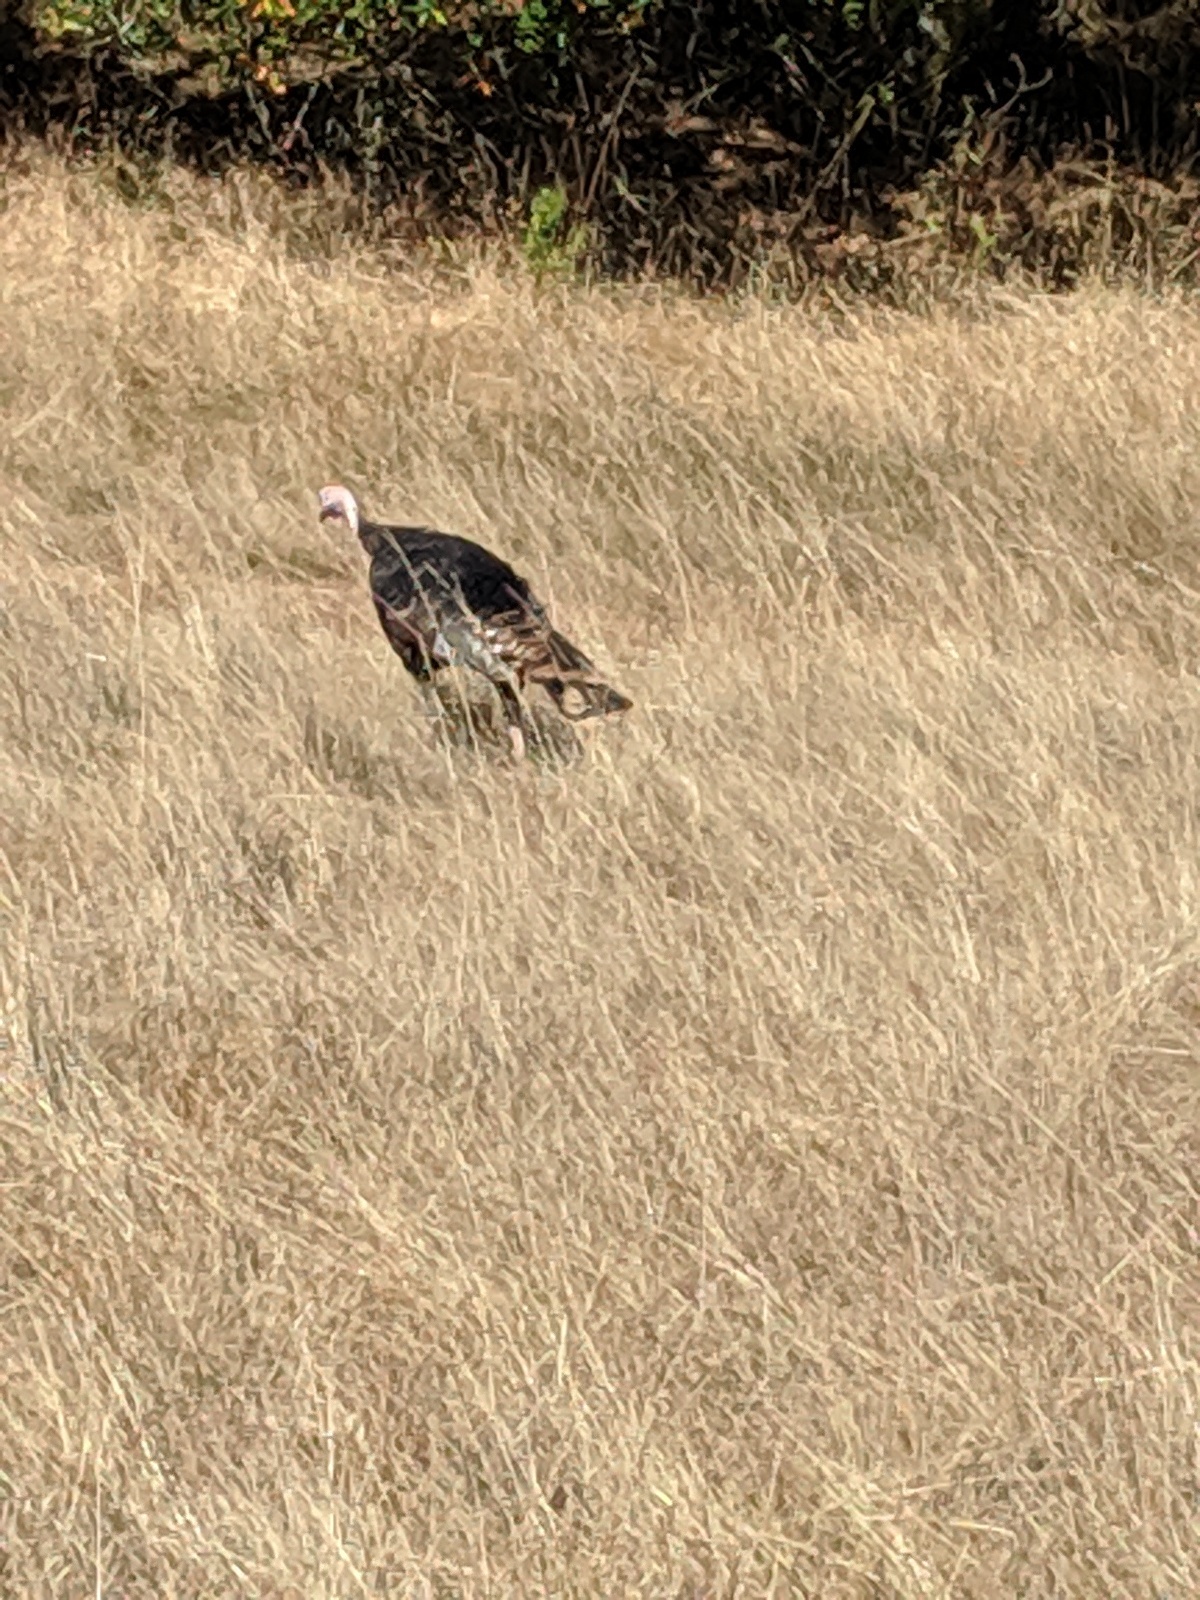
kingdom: Animalia
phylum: Chordata
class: Aves
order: Galliformes
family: Phasianidae
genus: Meleagris
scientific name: Meleagris gallopavo
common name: Wild turkey
